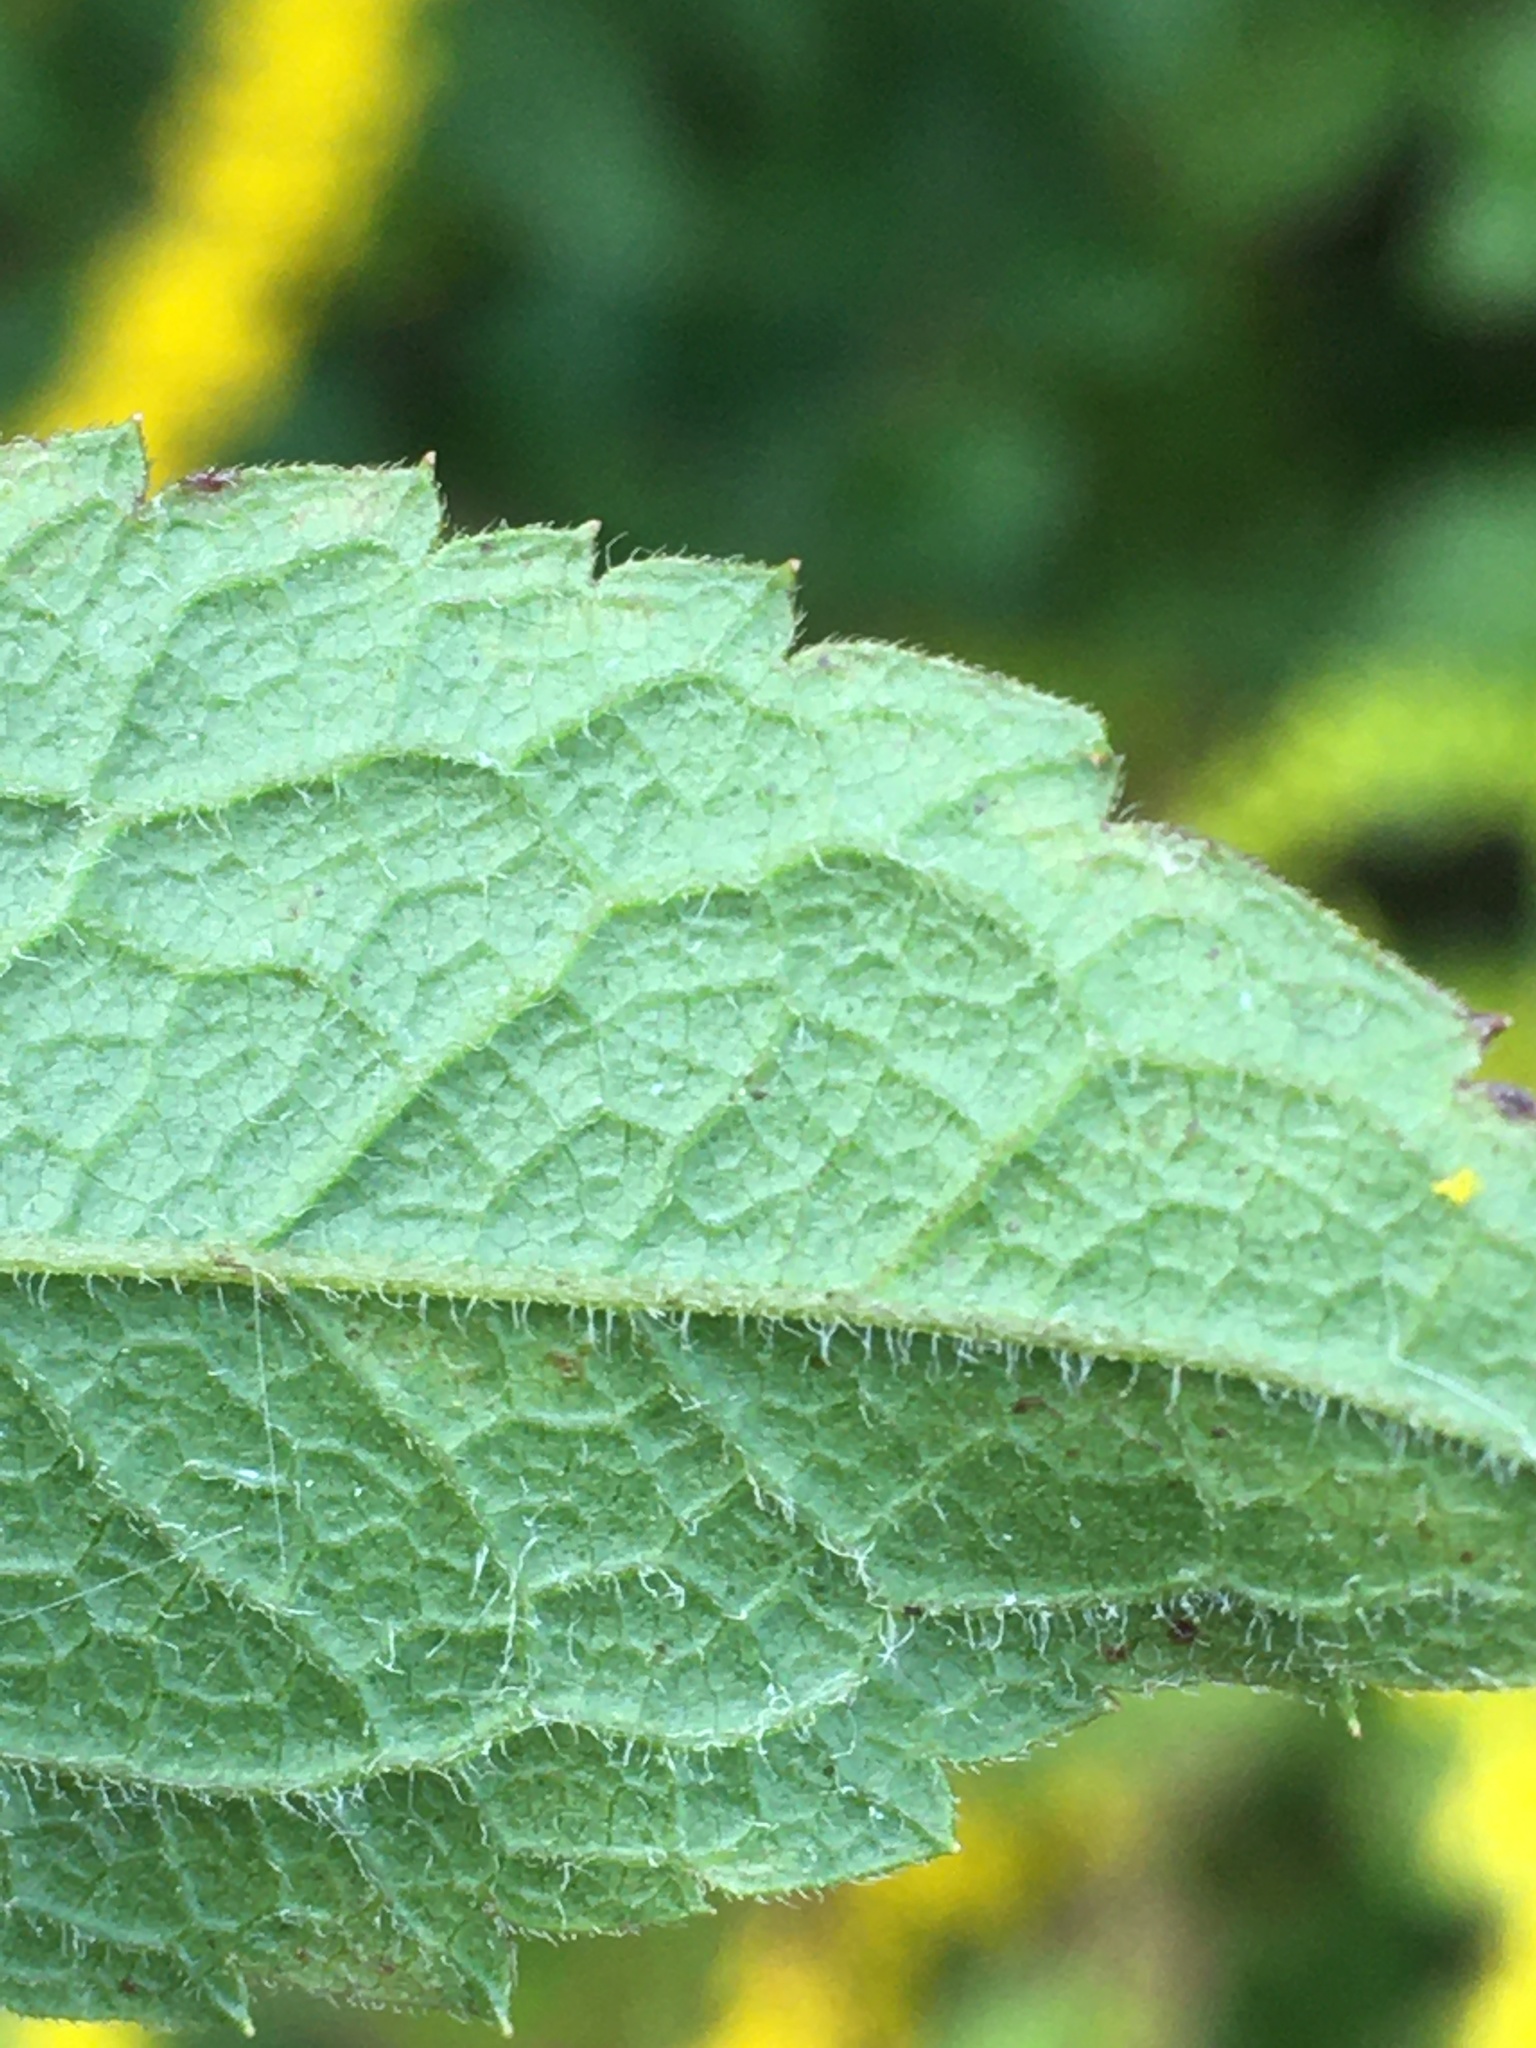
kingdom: Plantae
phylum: Tracheophyta
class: Magnoliopsida
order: Asterales
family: Asteraceae
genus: Solidago
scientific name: Solidago rugosa
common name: Rough-stemmed goldenrod
